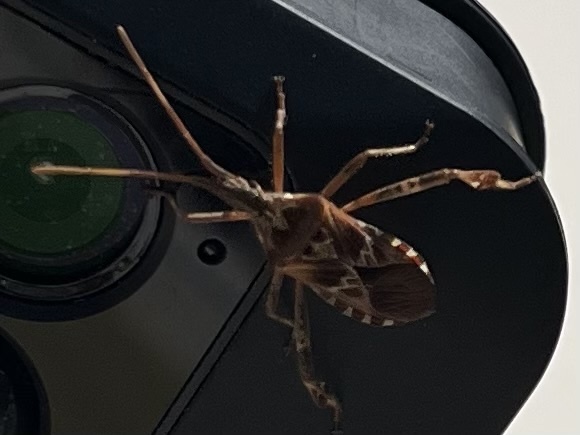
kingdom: Animalia
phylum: Arthropoda
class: Insecta
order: Hemiptera
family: Coreidae
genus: Leptoglossus
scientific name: Leptoglossus occidentalis
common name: Western conifer-seed bug
